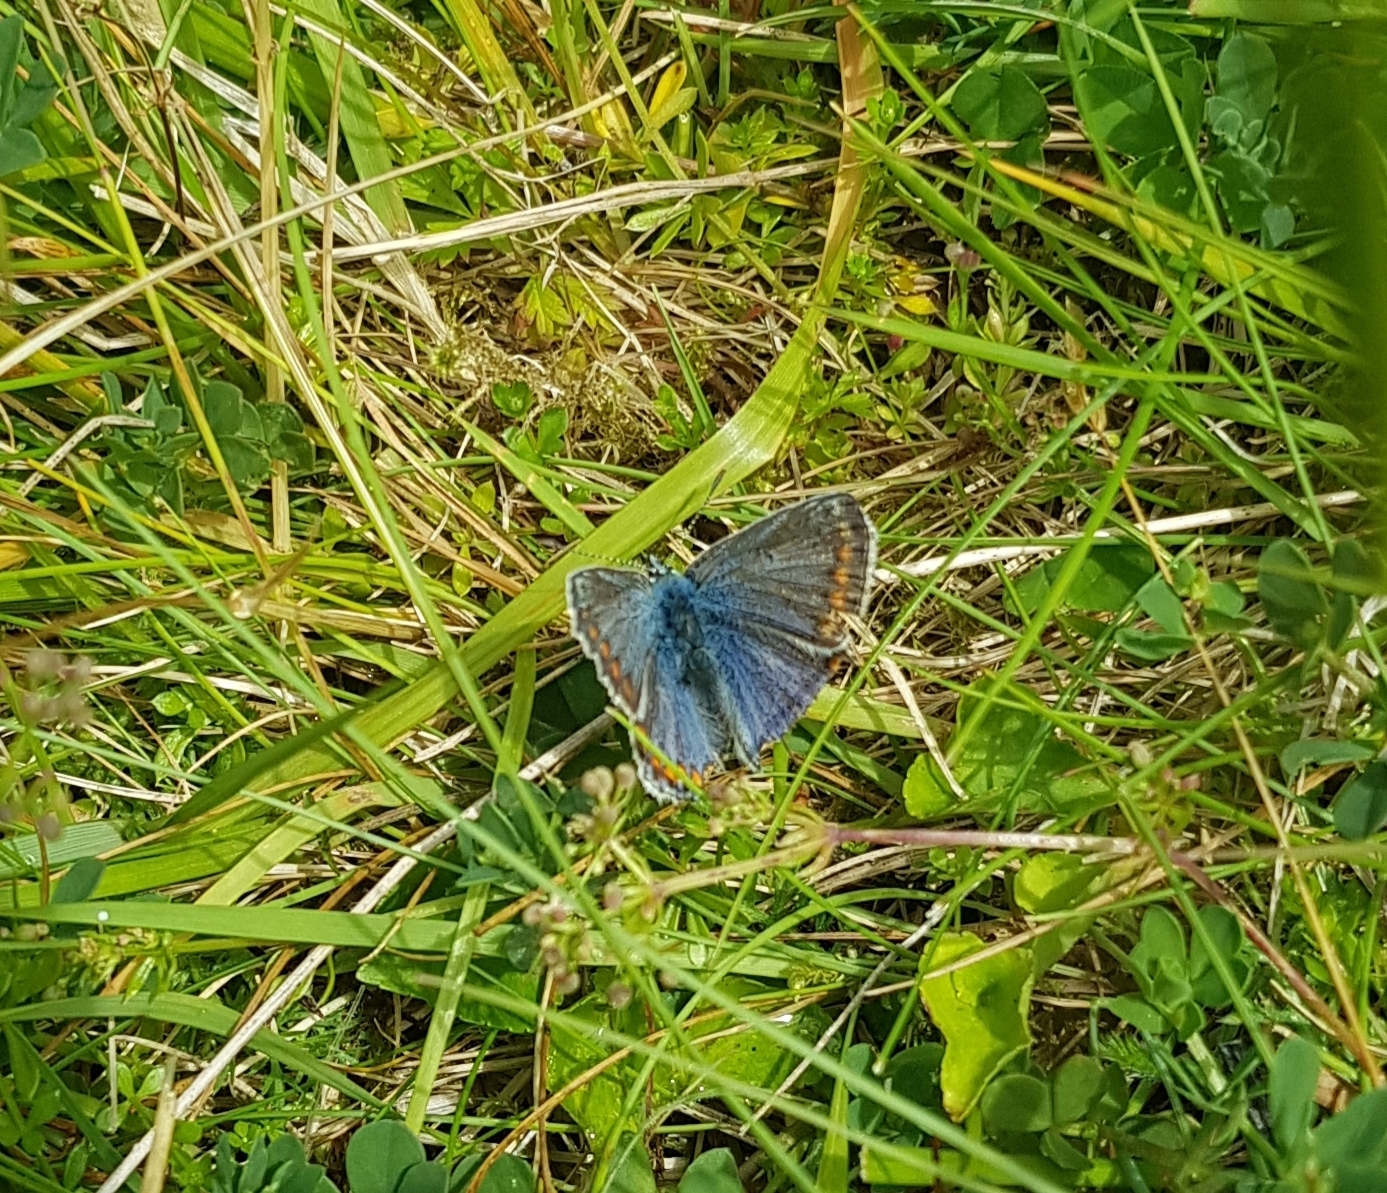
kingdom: Animalia
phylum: Arthropoda
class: Insecta
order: Lepidoptera
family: Lycaenidae
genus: Polyommatus
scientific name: Polyommatus icarus
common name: Common blue
